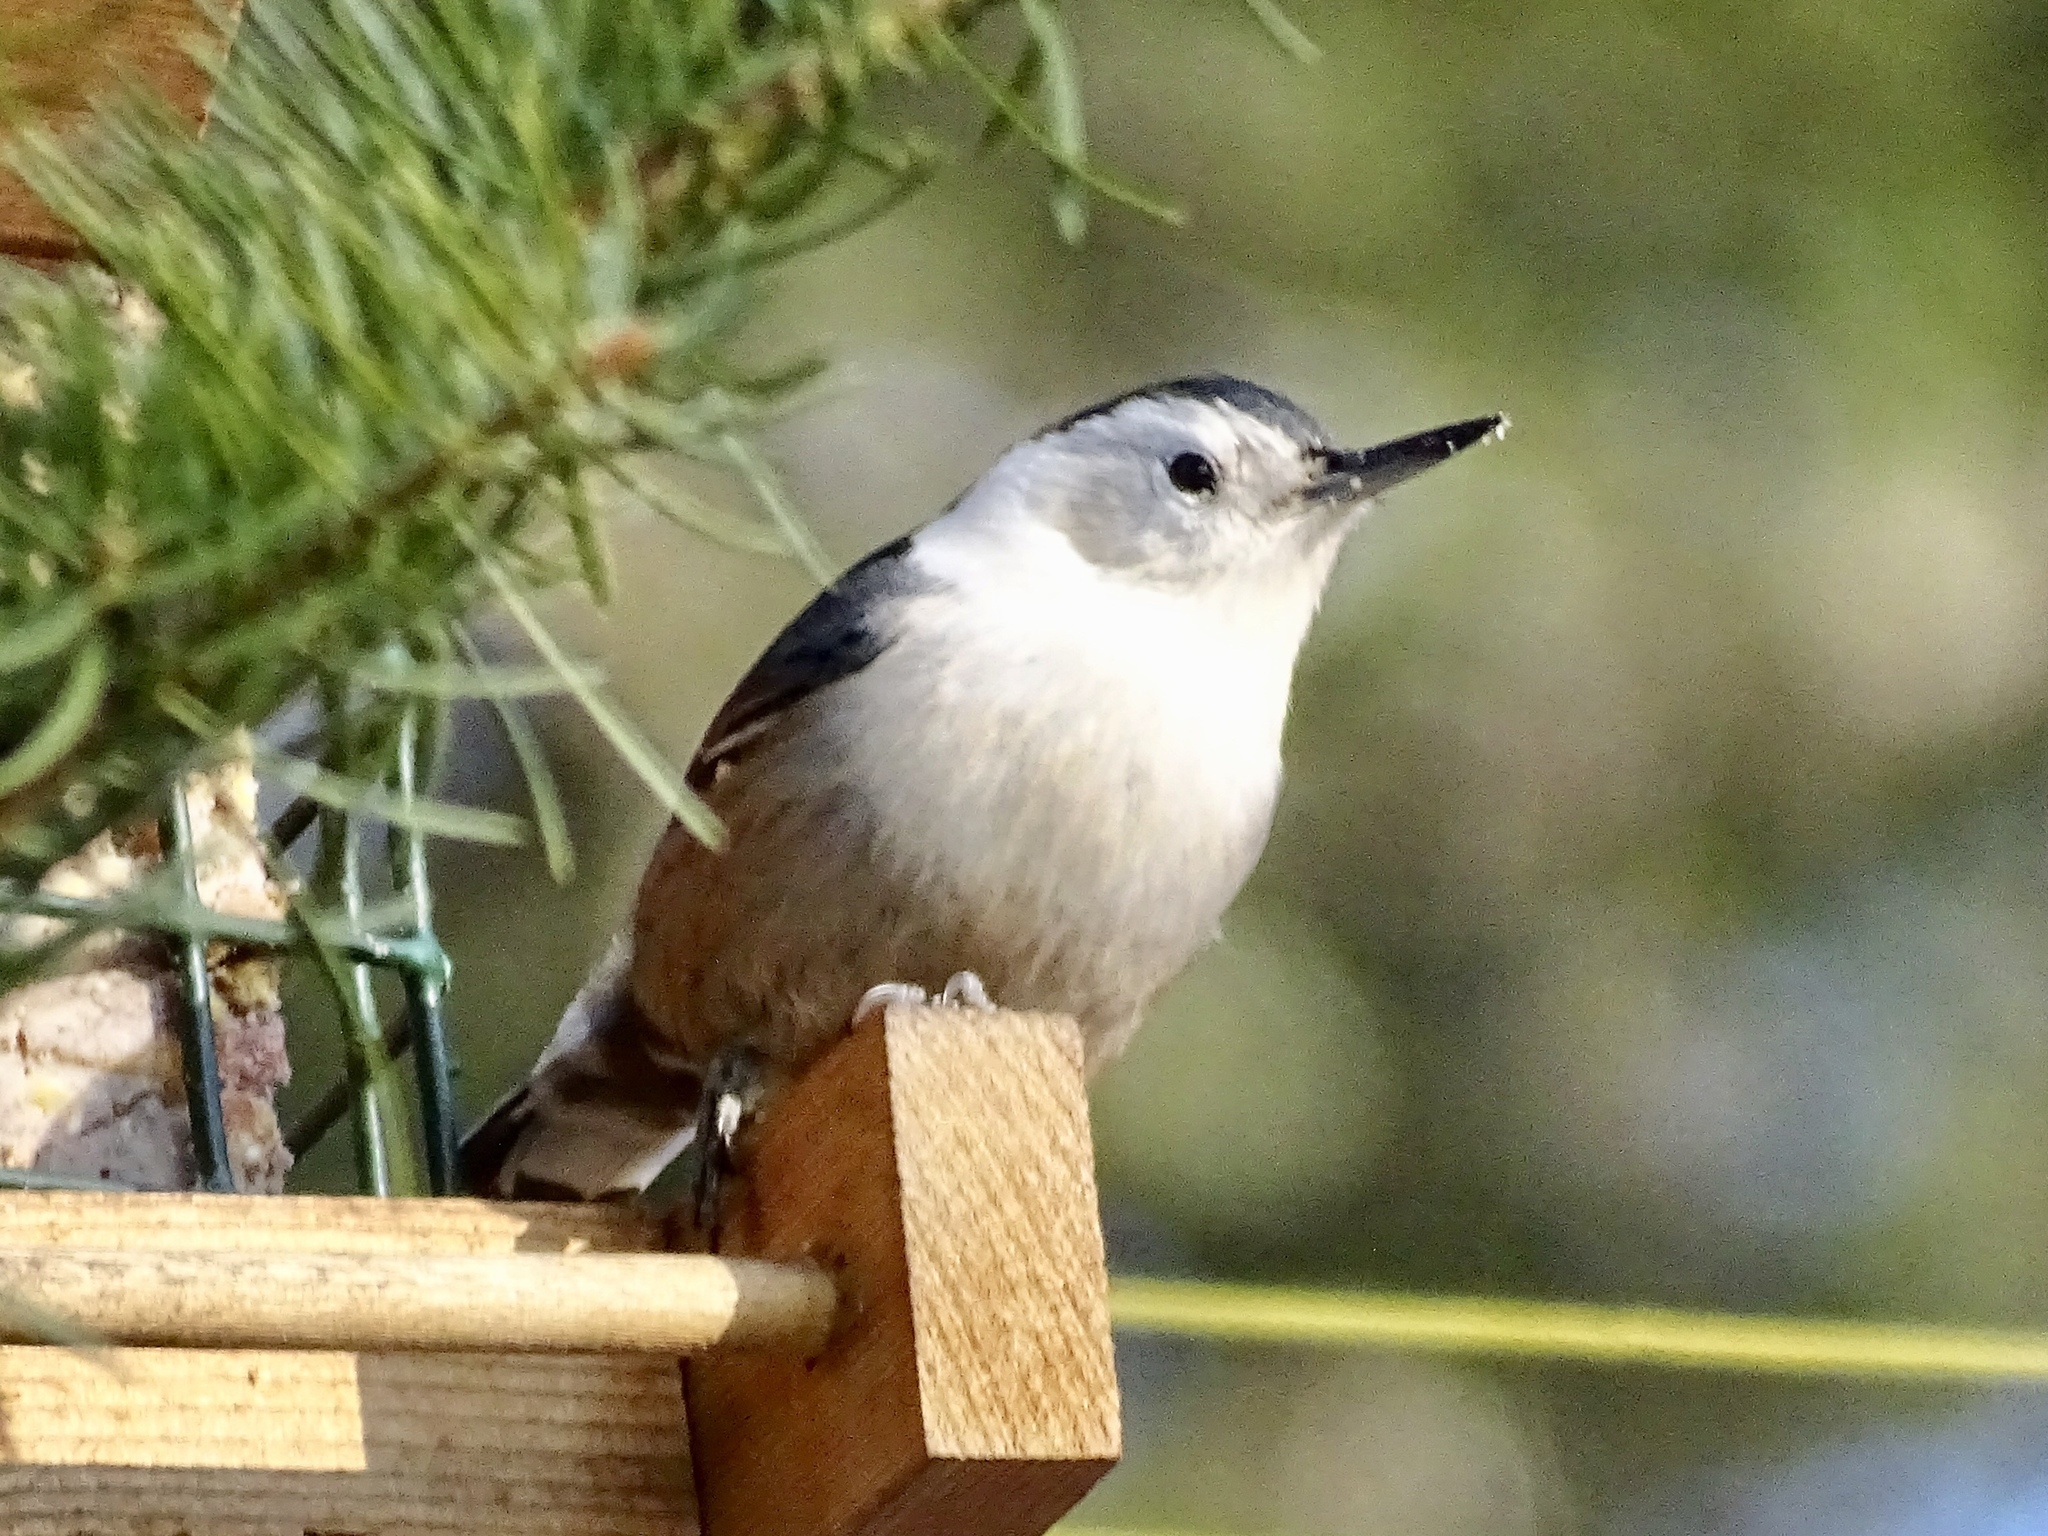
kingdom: Animalia
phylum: Chordata
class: Aves
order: Passeriformes
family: Sittidae
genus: Sitta
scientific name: Sitta carolinensis
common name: White-breasted nuthatch
